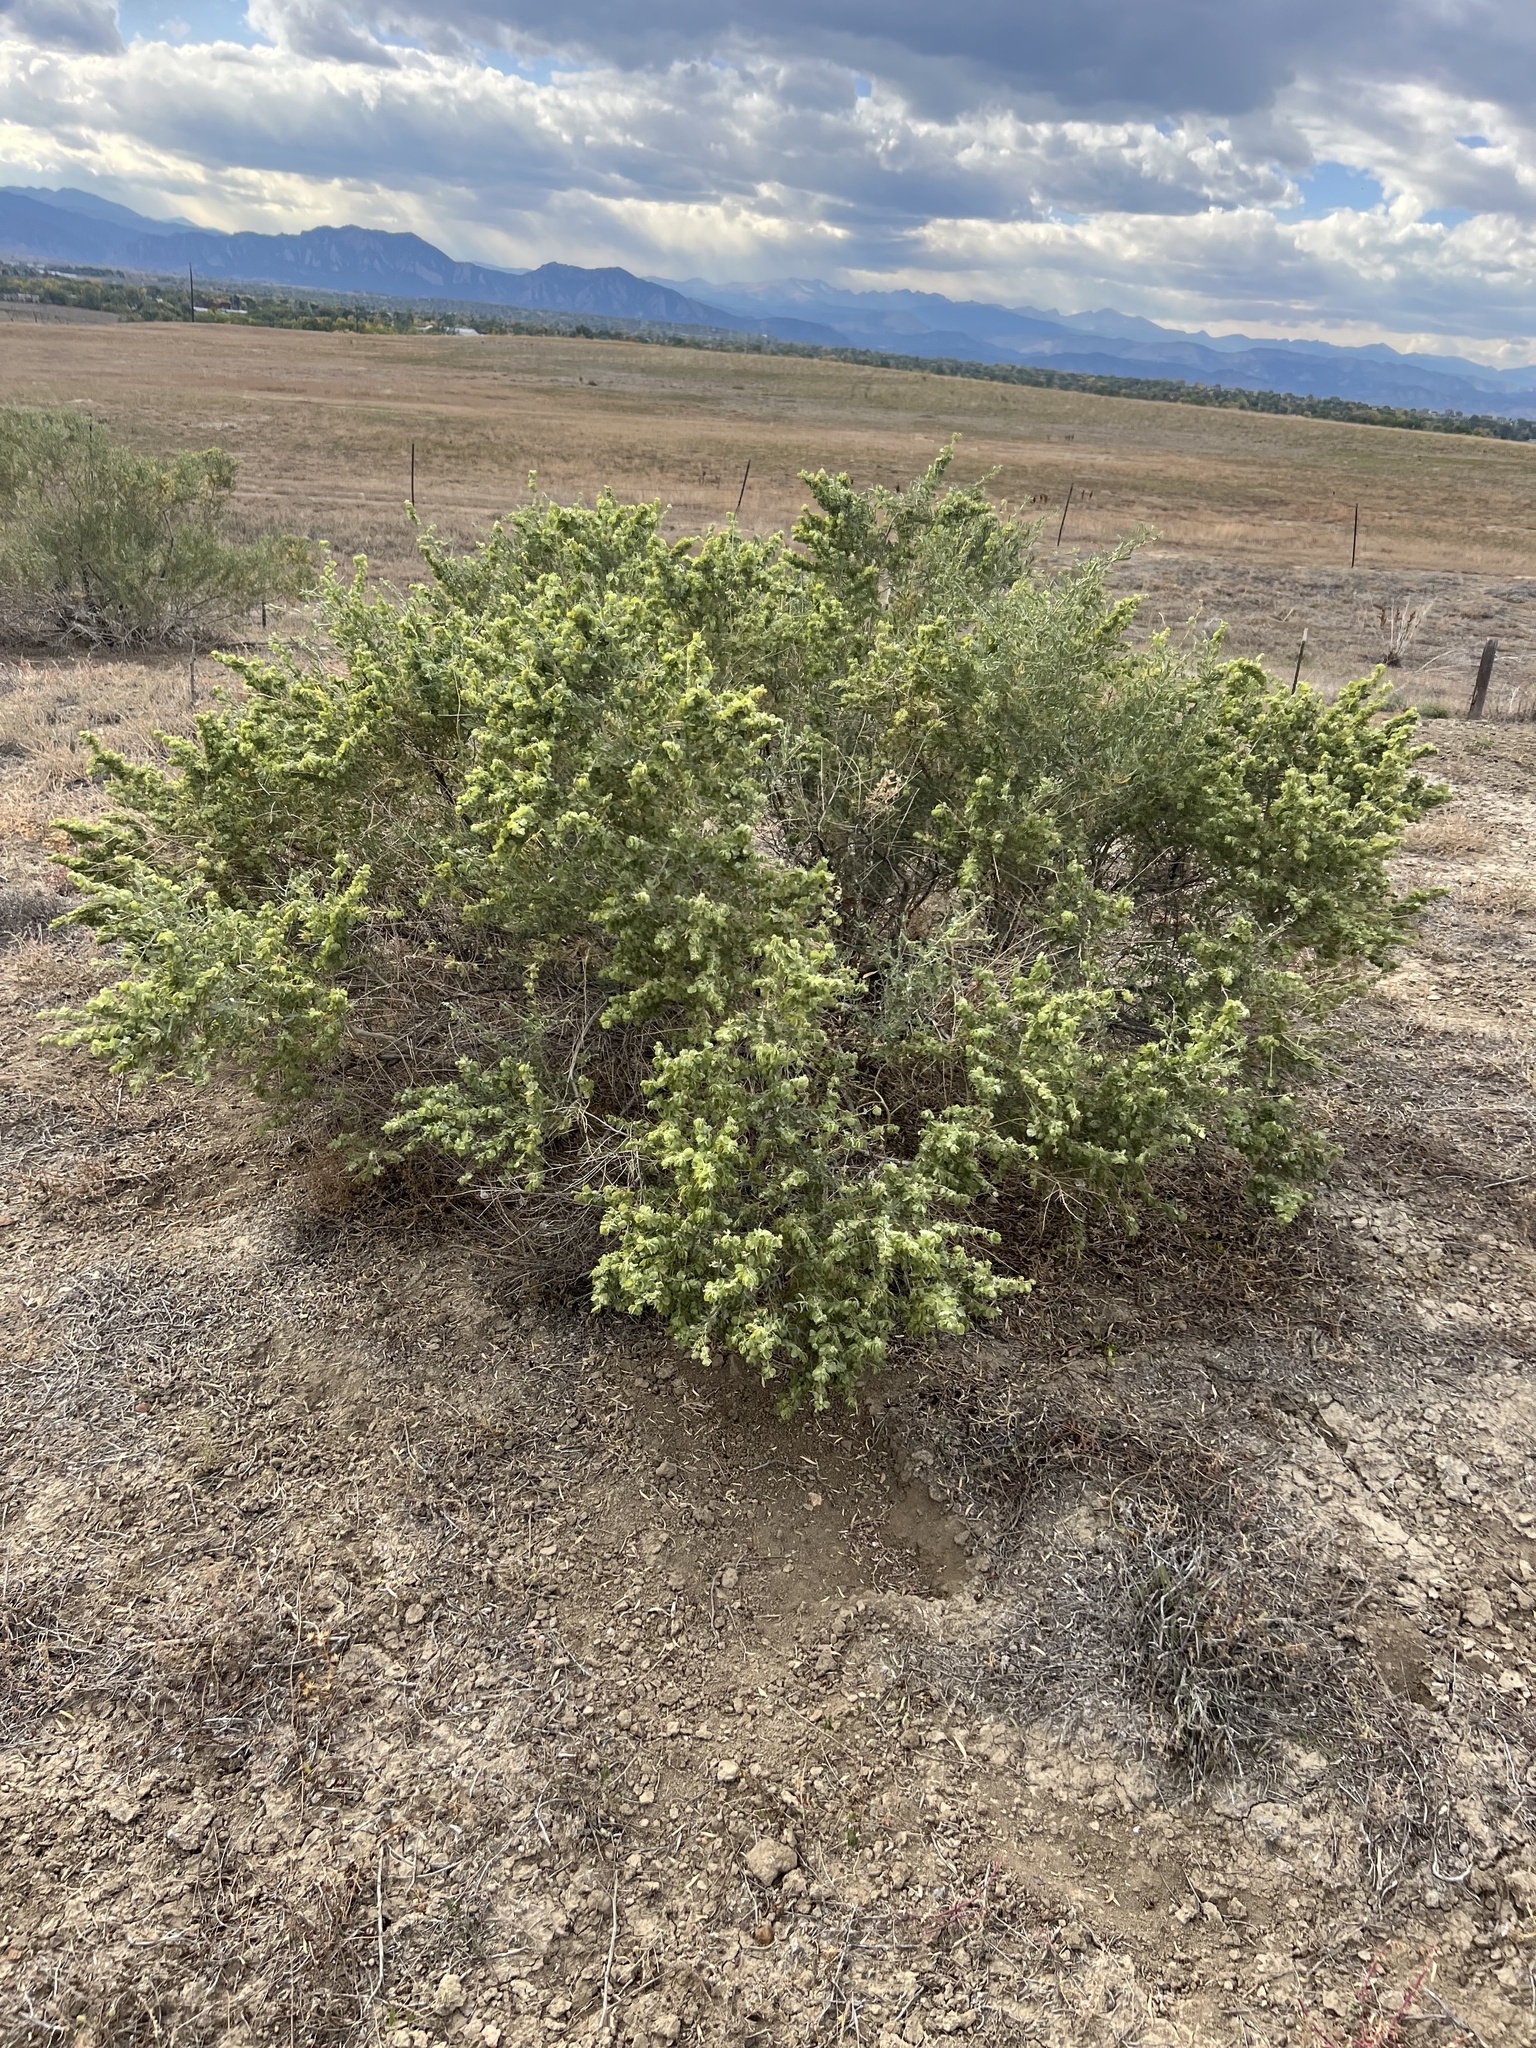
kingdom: Plantae
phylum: Tracheophyta
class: Magnoliopsida
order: Caryophyllales
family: Amaranthaceae
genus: Atriplex
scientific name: Atriplex canescens
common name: Four-wing saltbush
